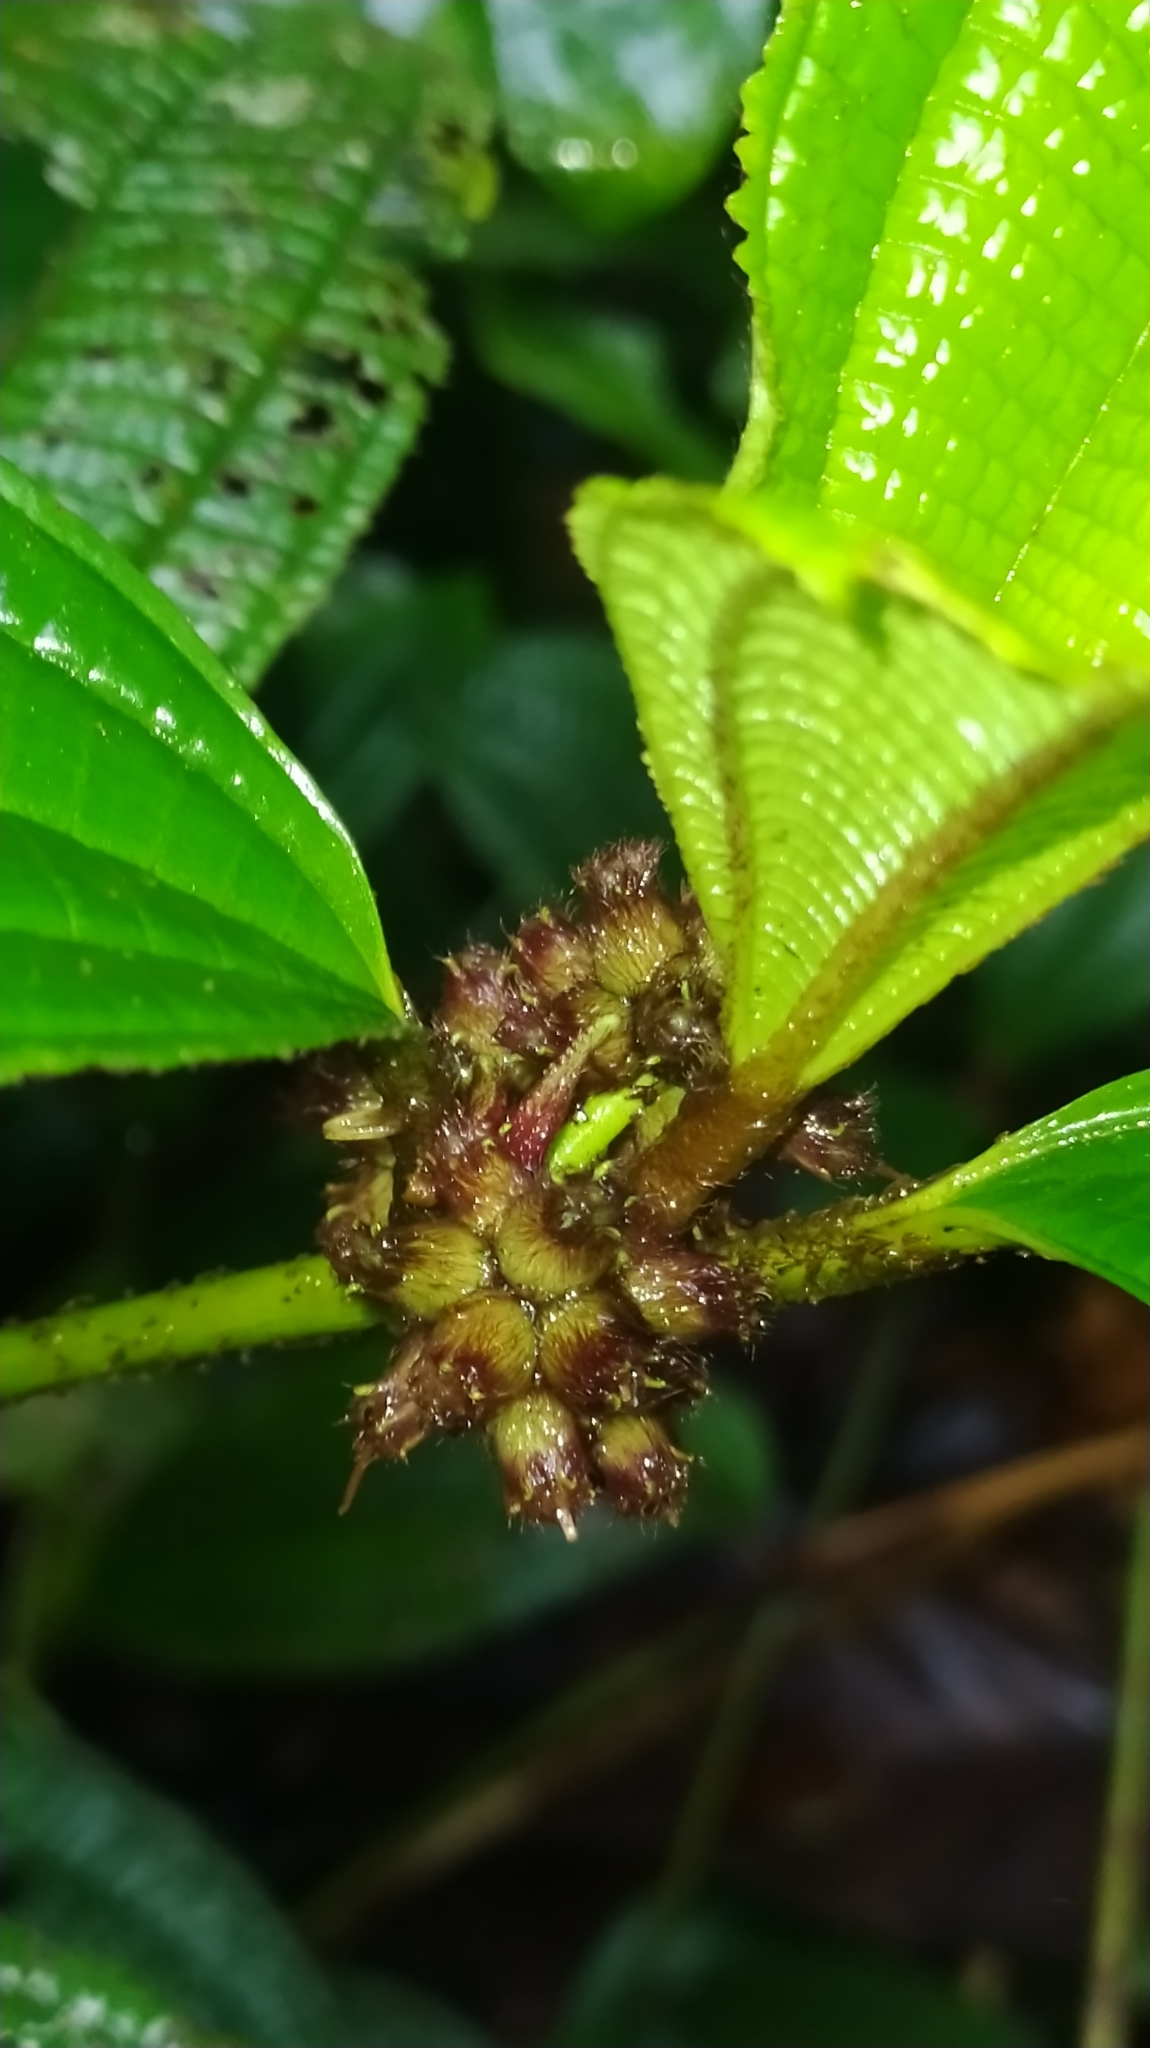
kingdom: Plantae
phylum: Tracheophyta
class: Magnoliopsida
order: Myrtales
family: Melastomataceae
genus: Miconia
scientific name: Miconia conglomerata
